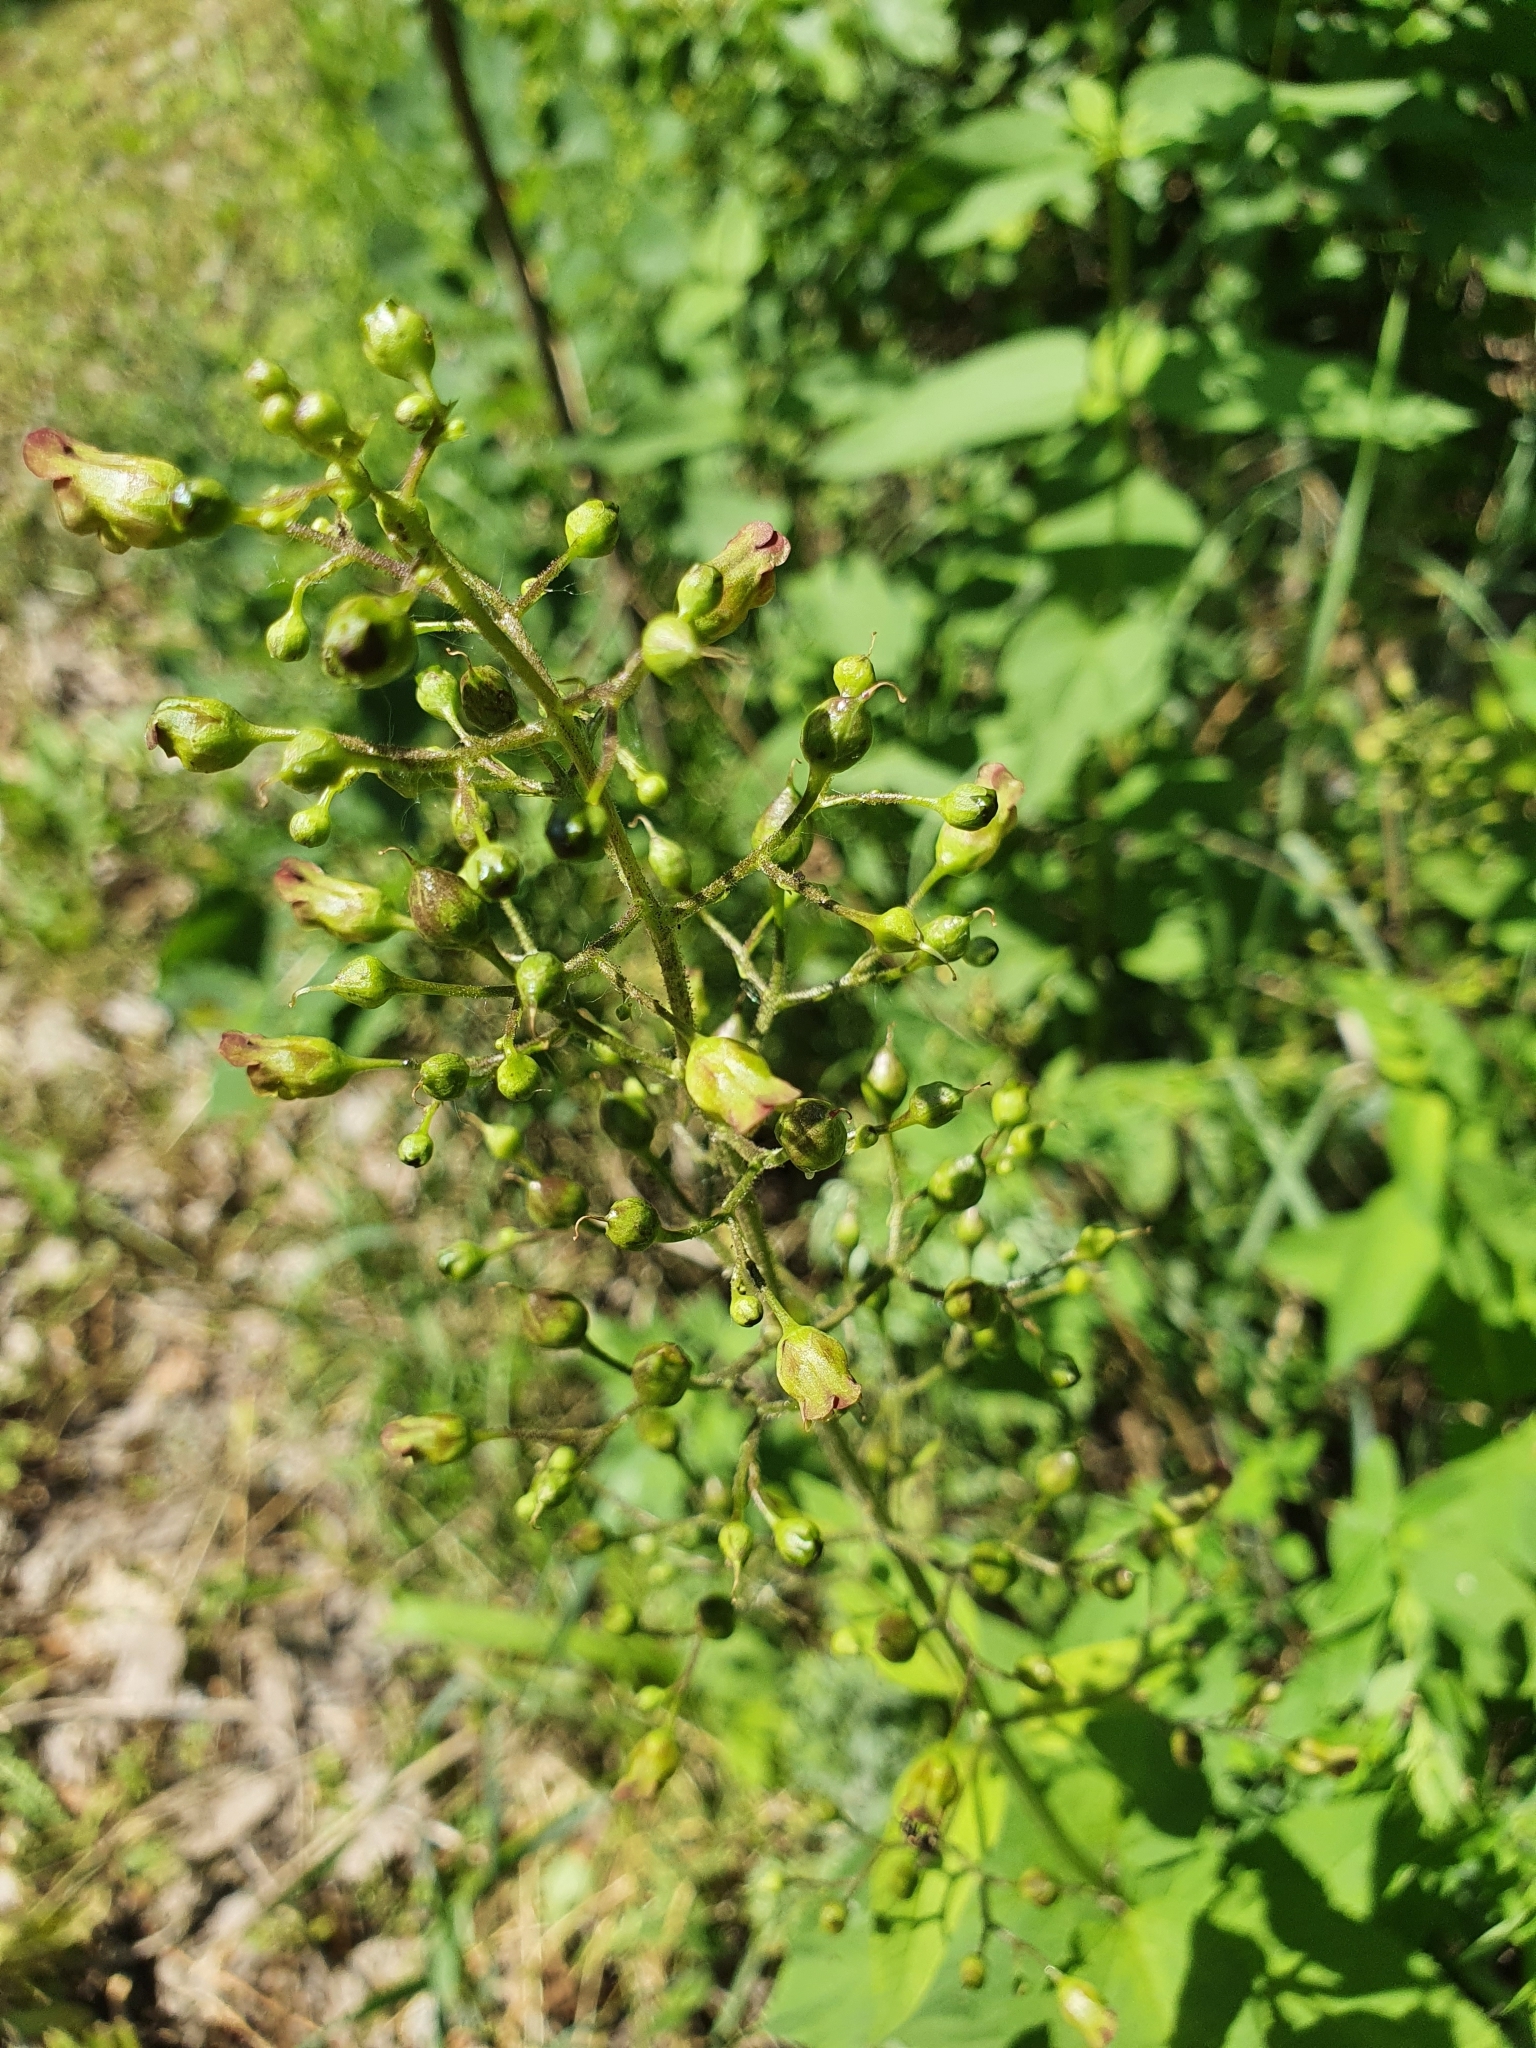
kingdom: Plantae
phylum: Tracheophyta
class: Magnoliopsida
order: Lamiales
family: Scrophulariaceae
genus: Scrophularia
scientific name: Scrophularia nodosa
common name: Common figwort
